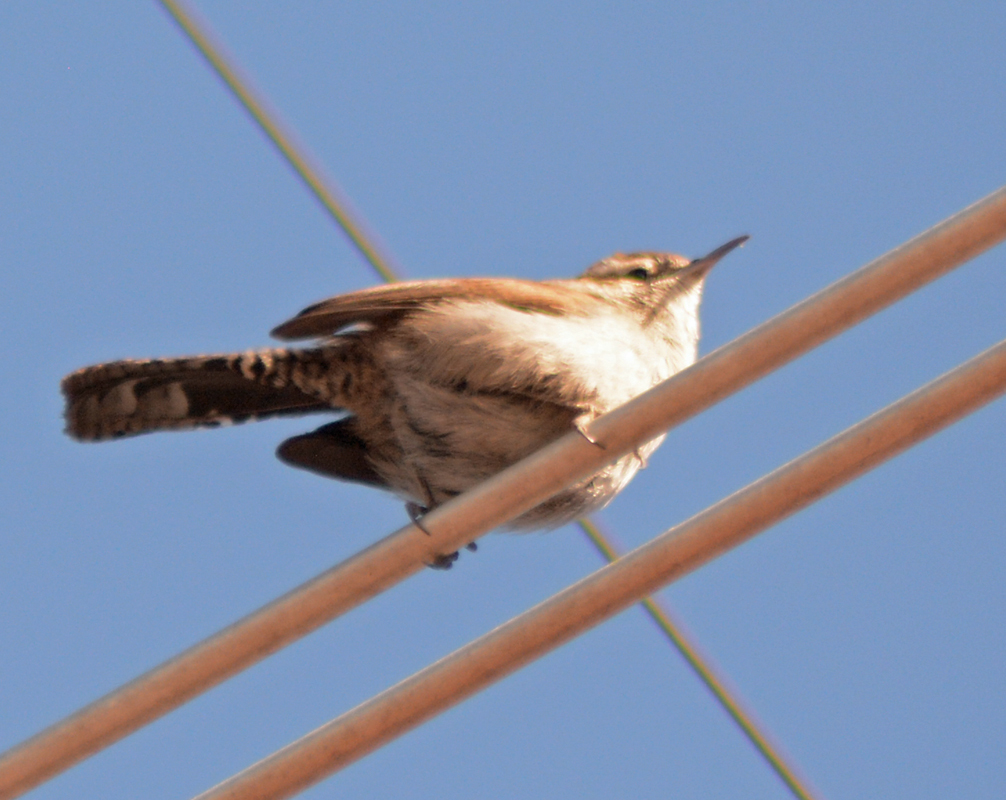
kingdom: Animalia
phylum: Chordata
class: Aves
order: Passeriformes
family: Troglodytidae
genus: Thryomanes
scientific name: Thryomanes bewickii
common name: Bewick's wren
